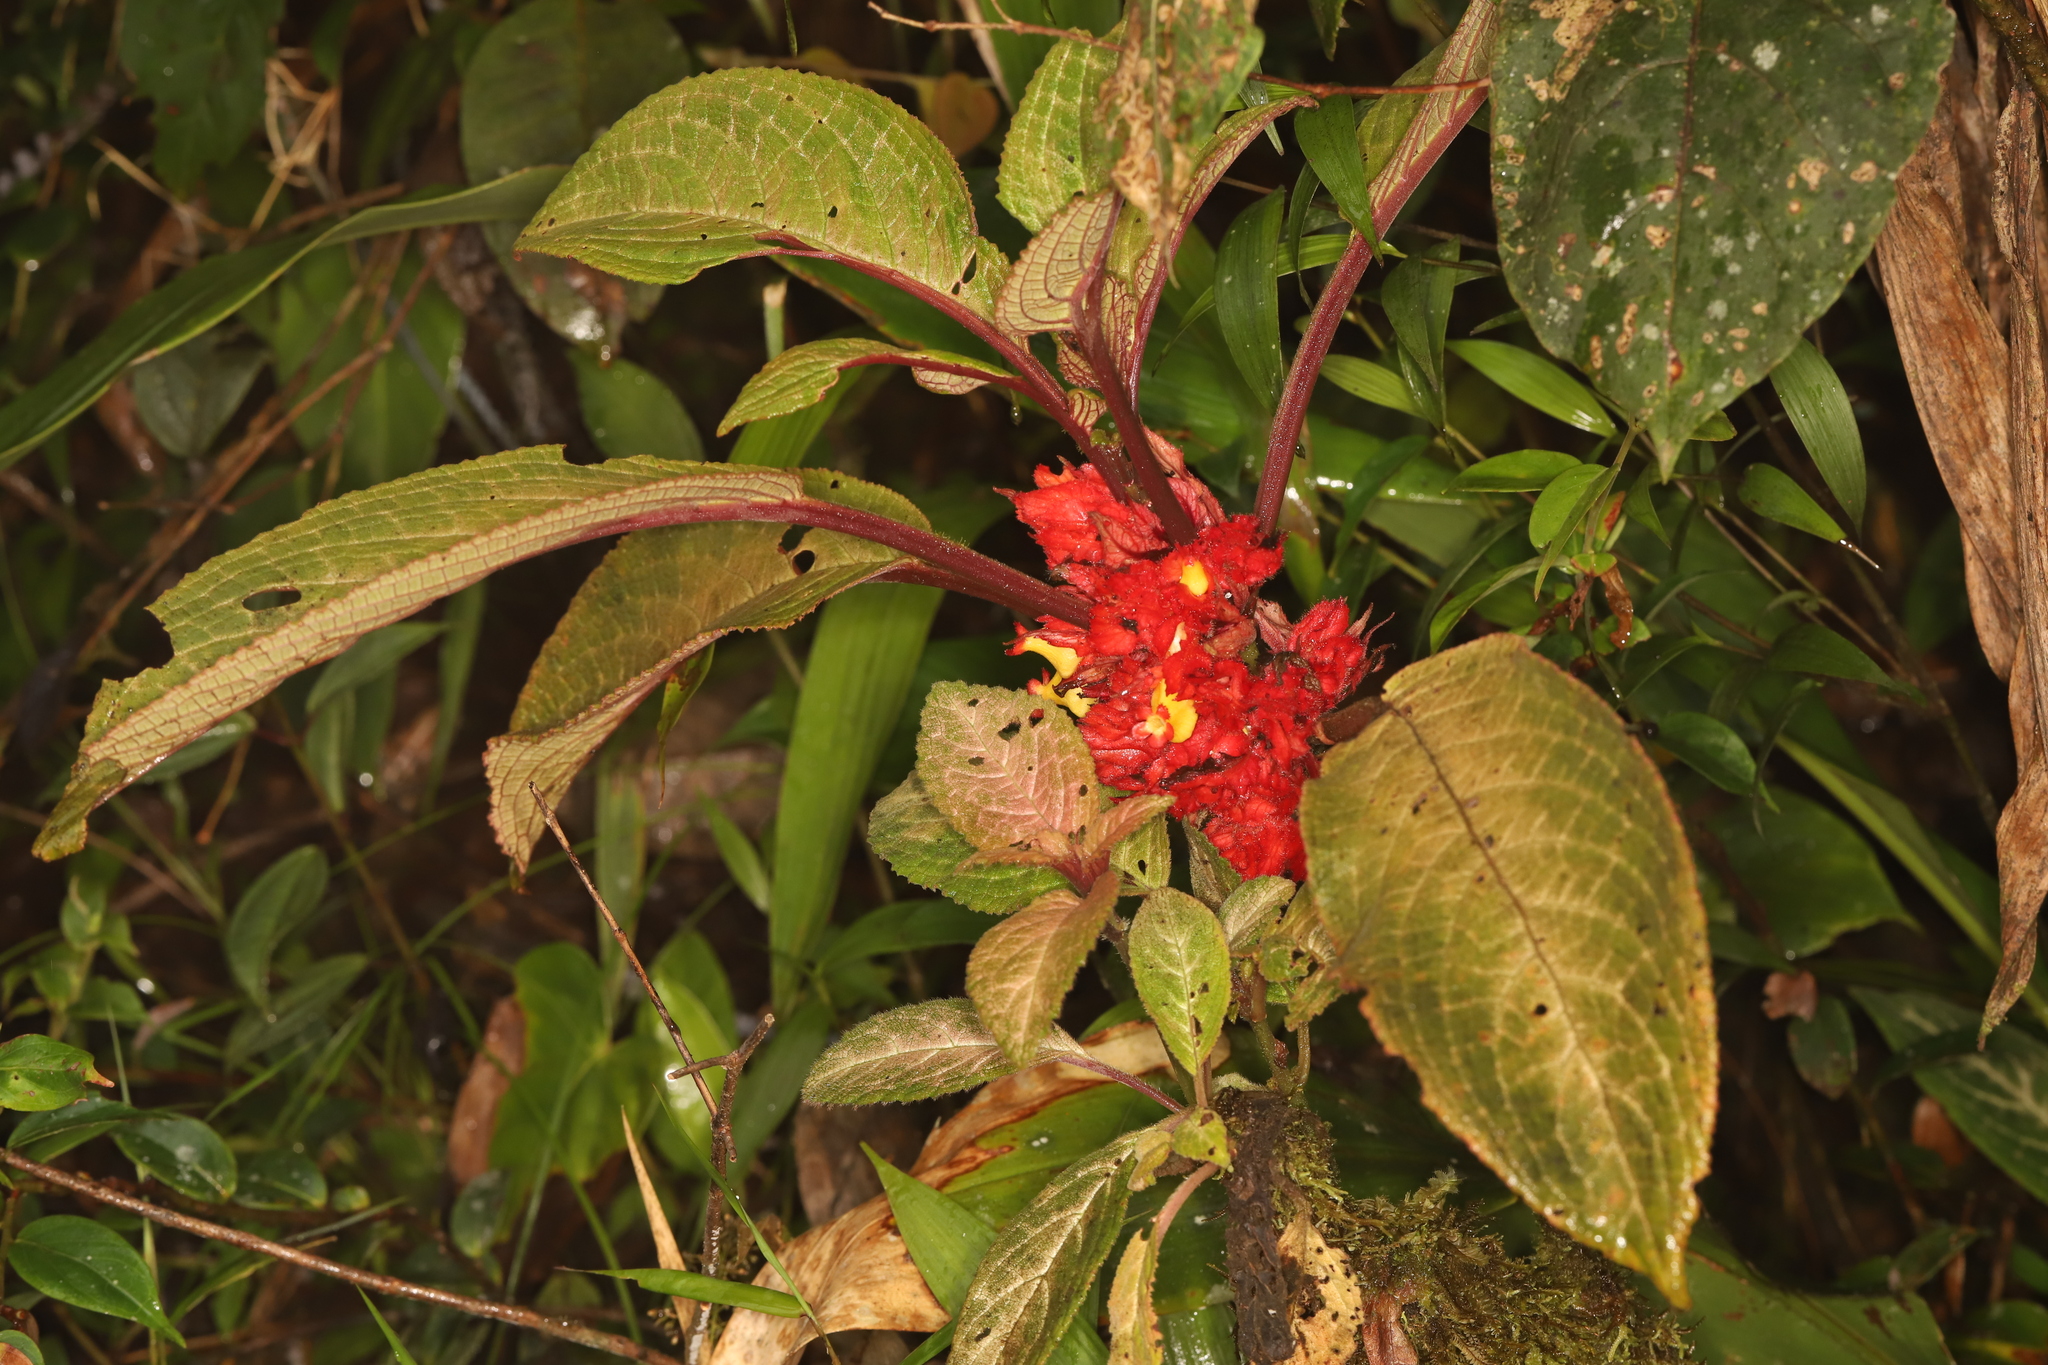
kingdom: Plantae
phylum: Tracheophyta
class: Magnoliopsida
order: Lamiales
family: Gesneriaceae
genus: Drymonia
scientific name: Drymonia teuscheri
